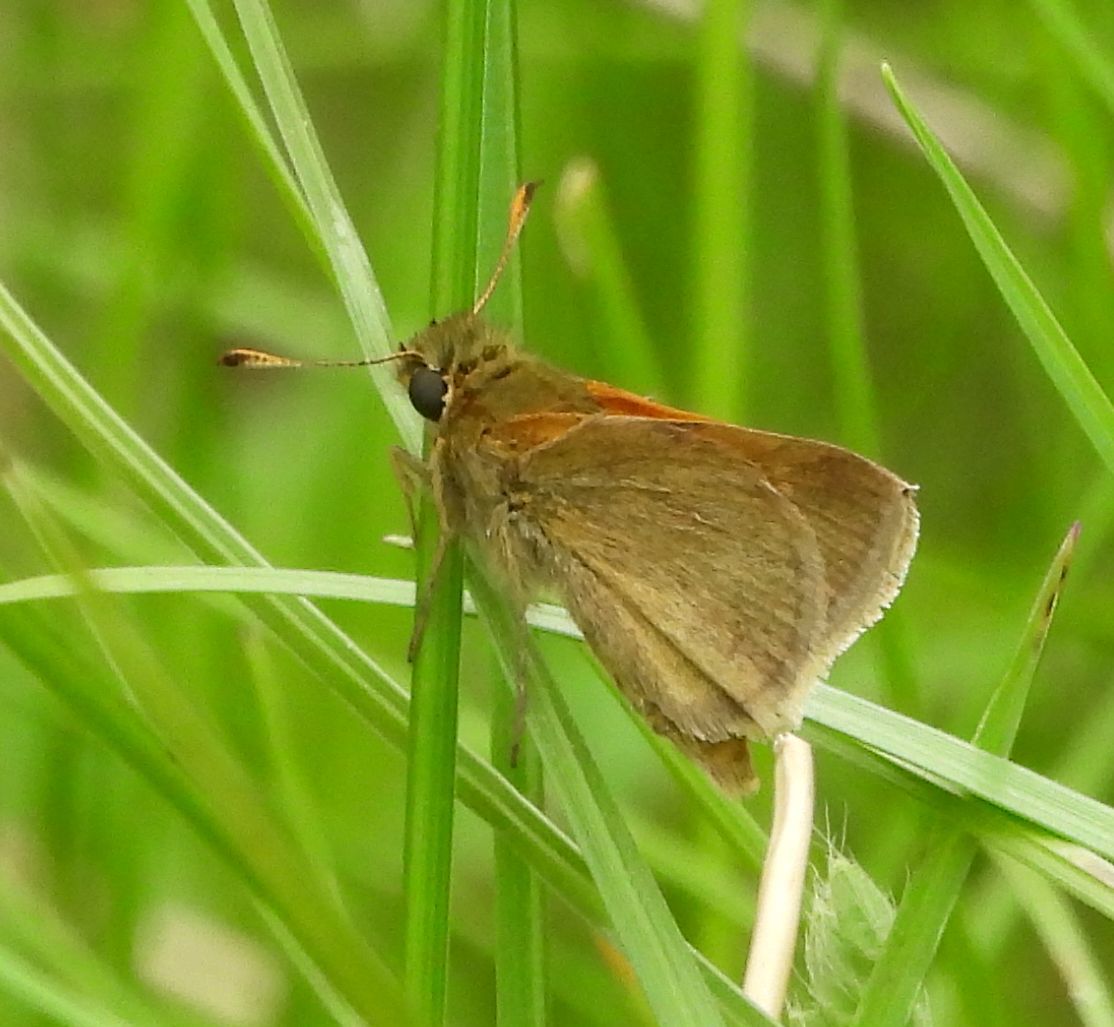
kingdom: Animalia
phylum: Arthropoda
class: Insecta
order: Lepidoptera
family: Hesperiidae
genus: Polites
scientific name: Polites themistocles
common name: Tawny-edged skipper
